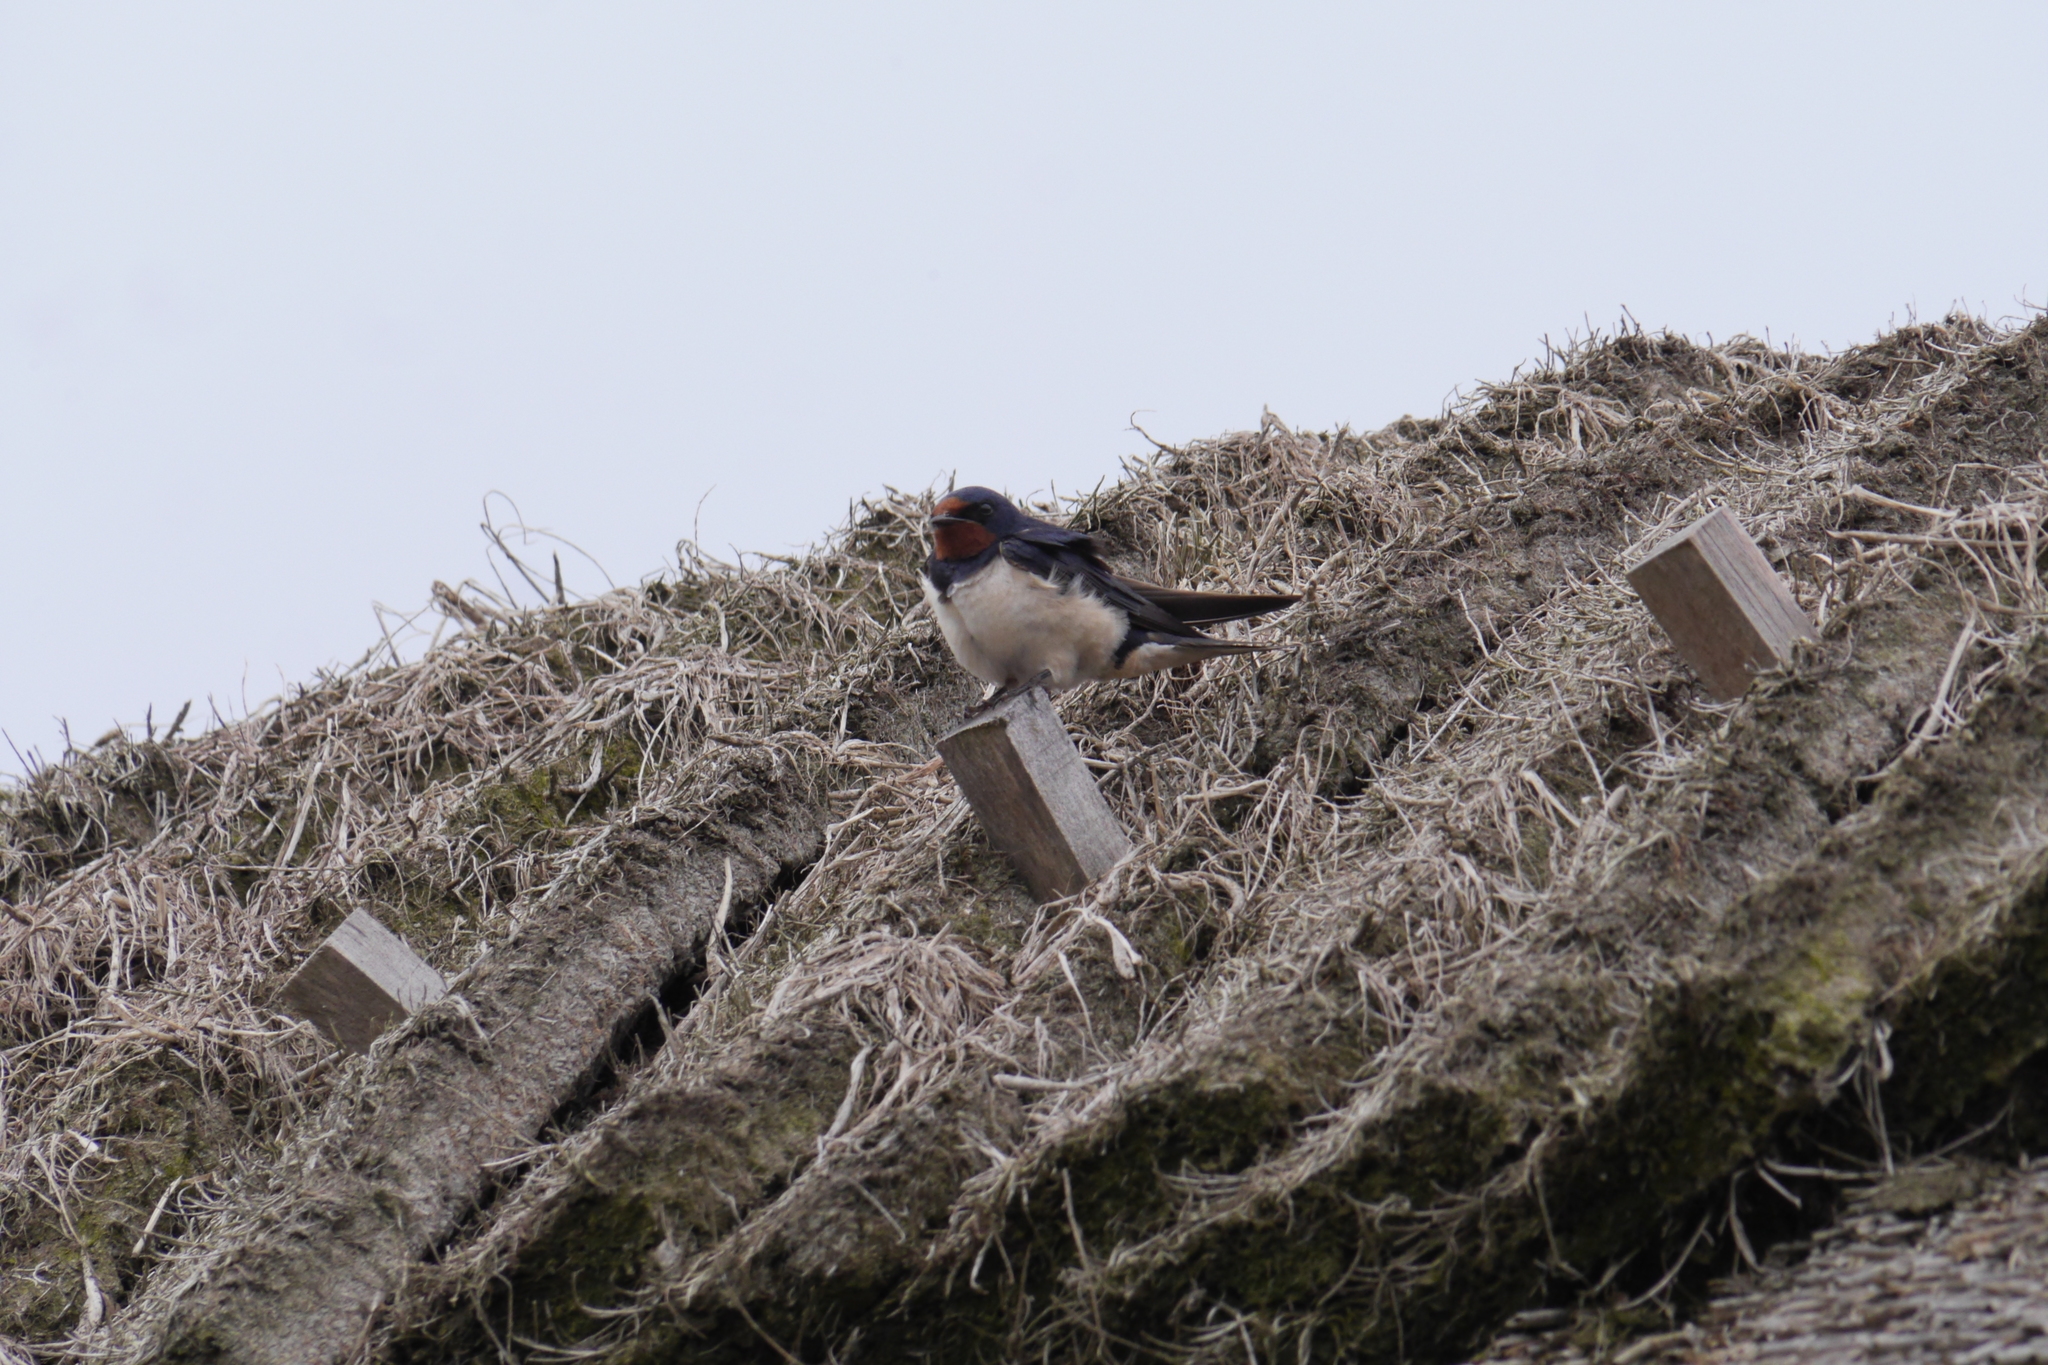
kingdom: Animalia
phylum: Chordata
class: Aves
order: Passeriformes
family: Hirundinidae
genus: Hirundo
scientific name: Hirundo rustica
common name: Barn swallow
